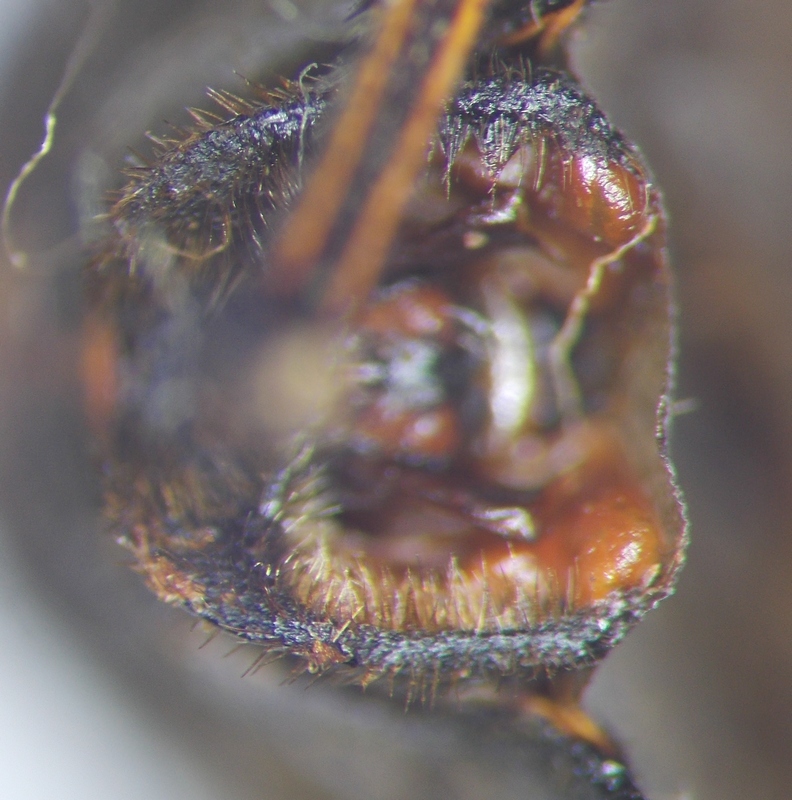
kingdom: Animalia
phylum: Arthropoda
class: Insecta
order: Hemiptera
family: Pentatomidae
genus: Mustha
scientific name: Mustha
